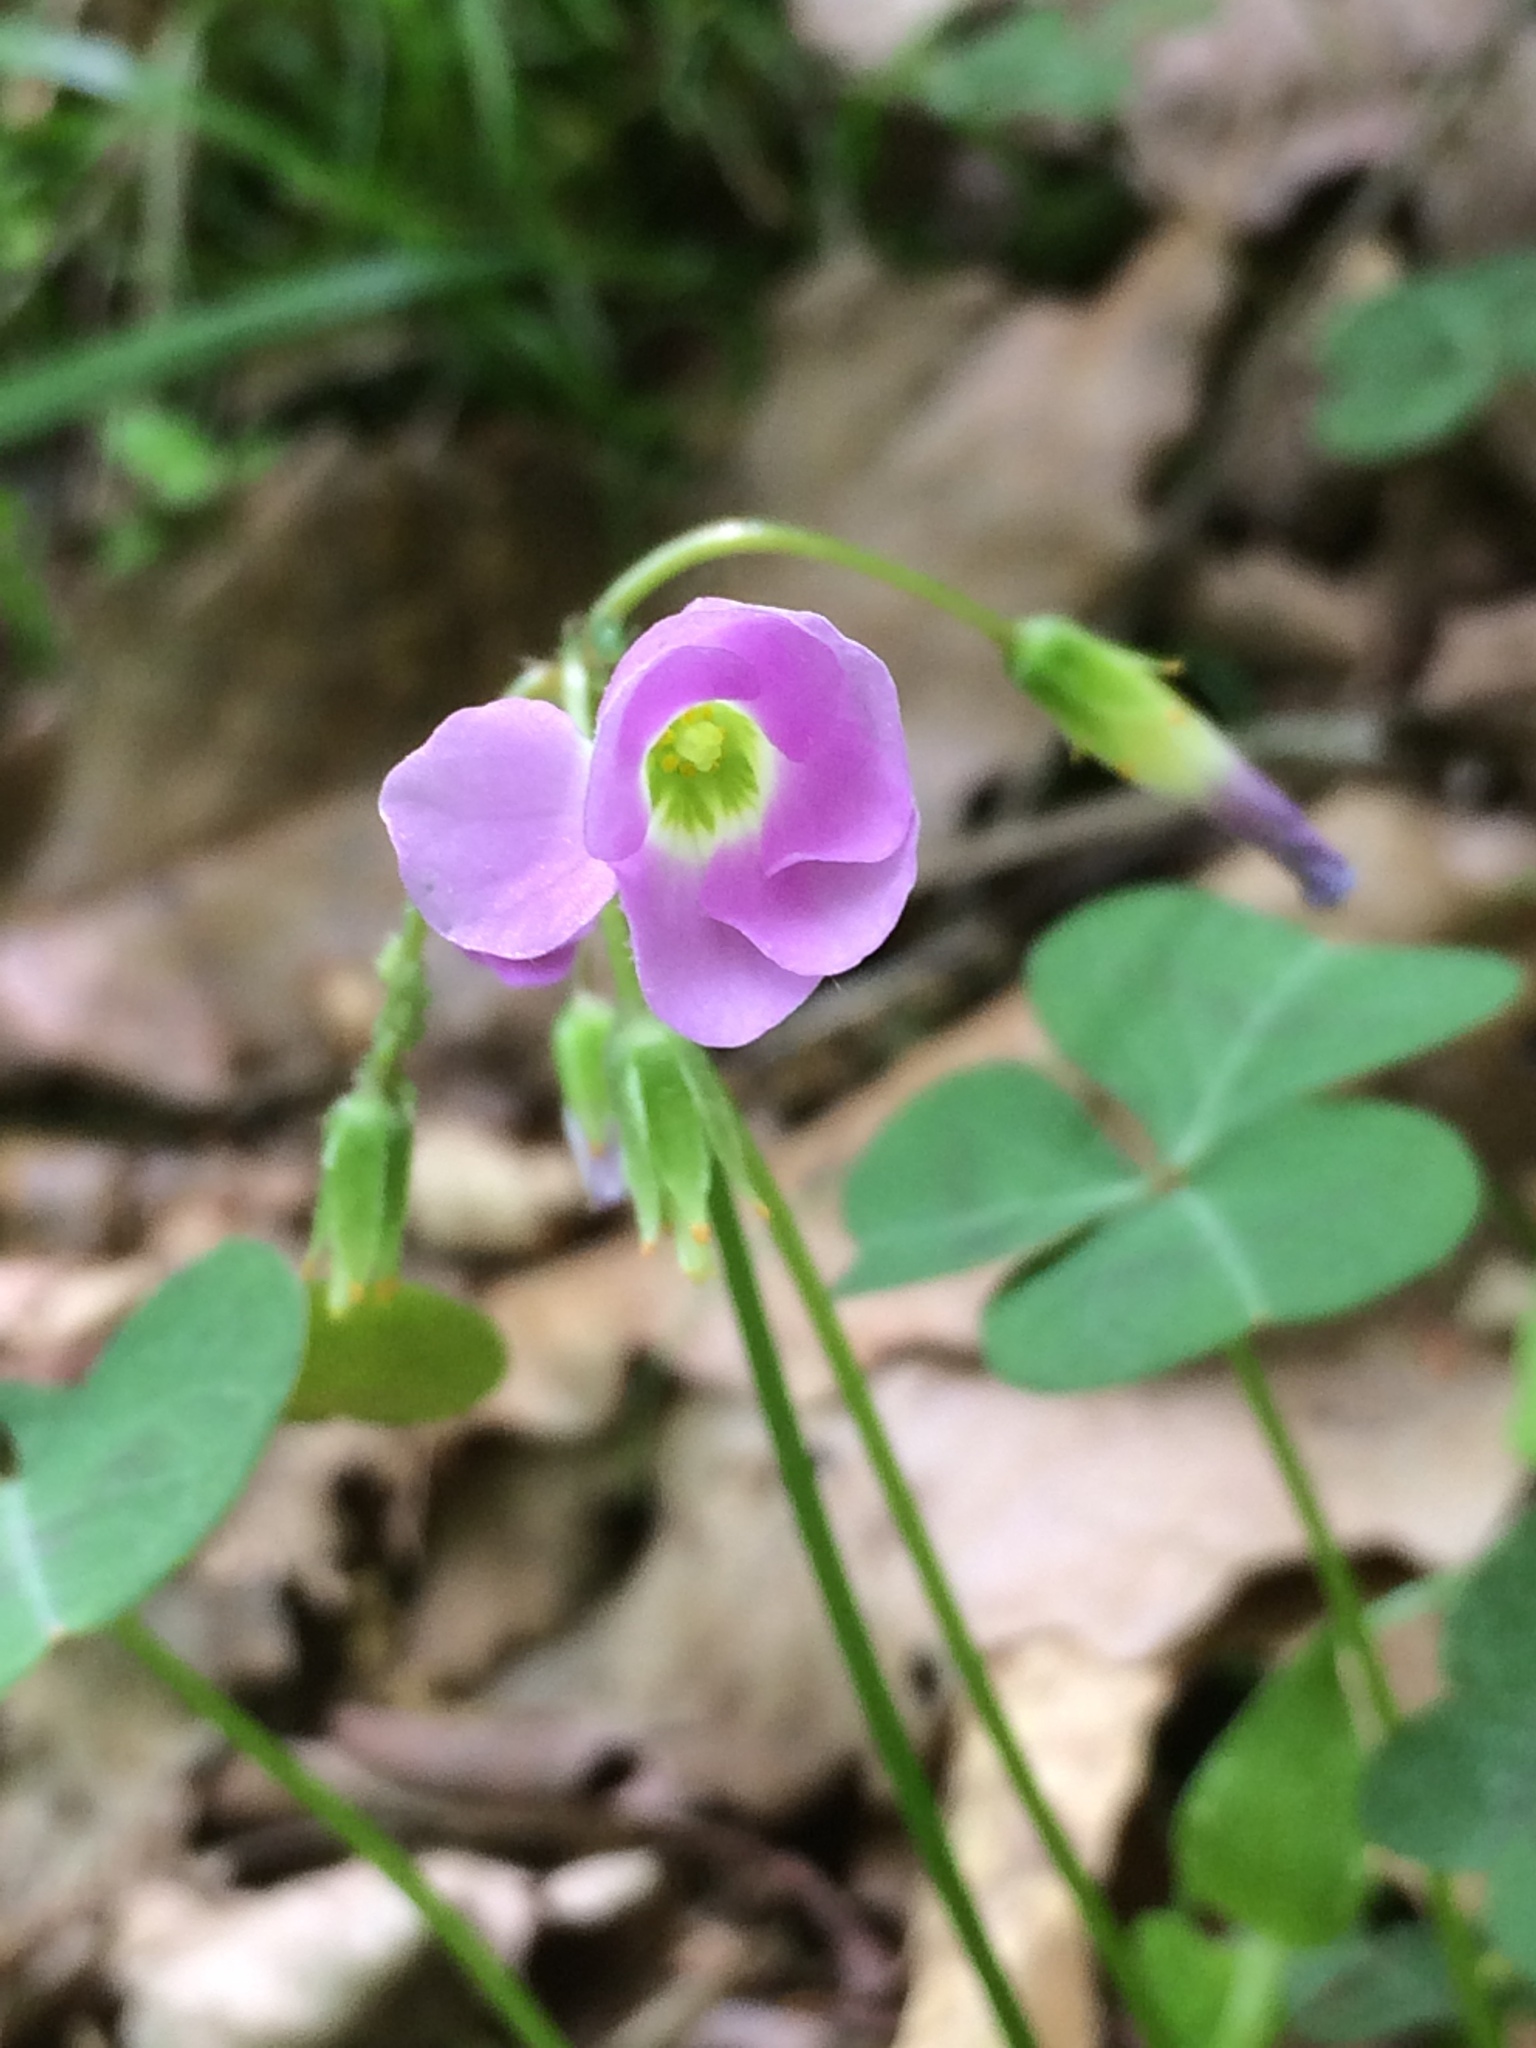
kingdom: Plantae
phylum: Tracheophyta
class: Magnoliopsida
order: Oxalidales
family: Oxalidaceae
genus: Oxalis
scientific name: Oxalis violacea
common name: Violet wood-sorrel
